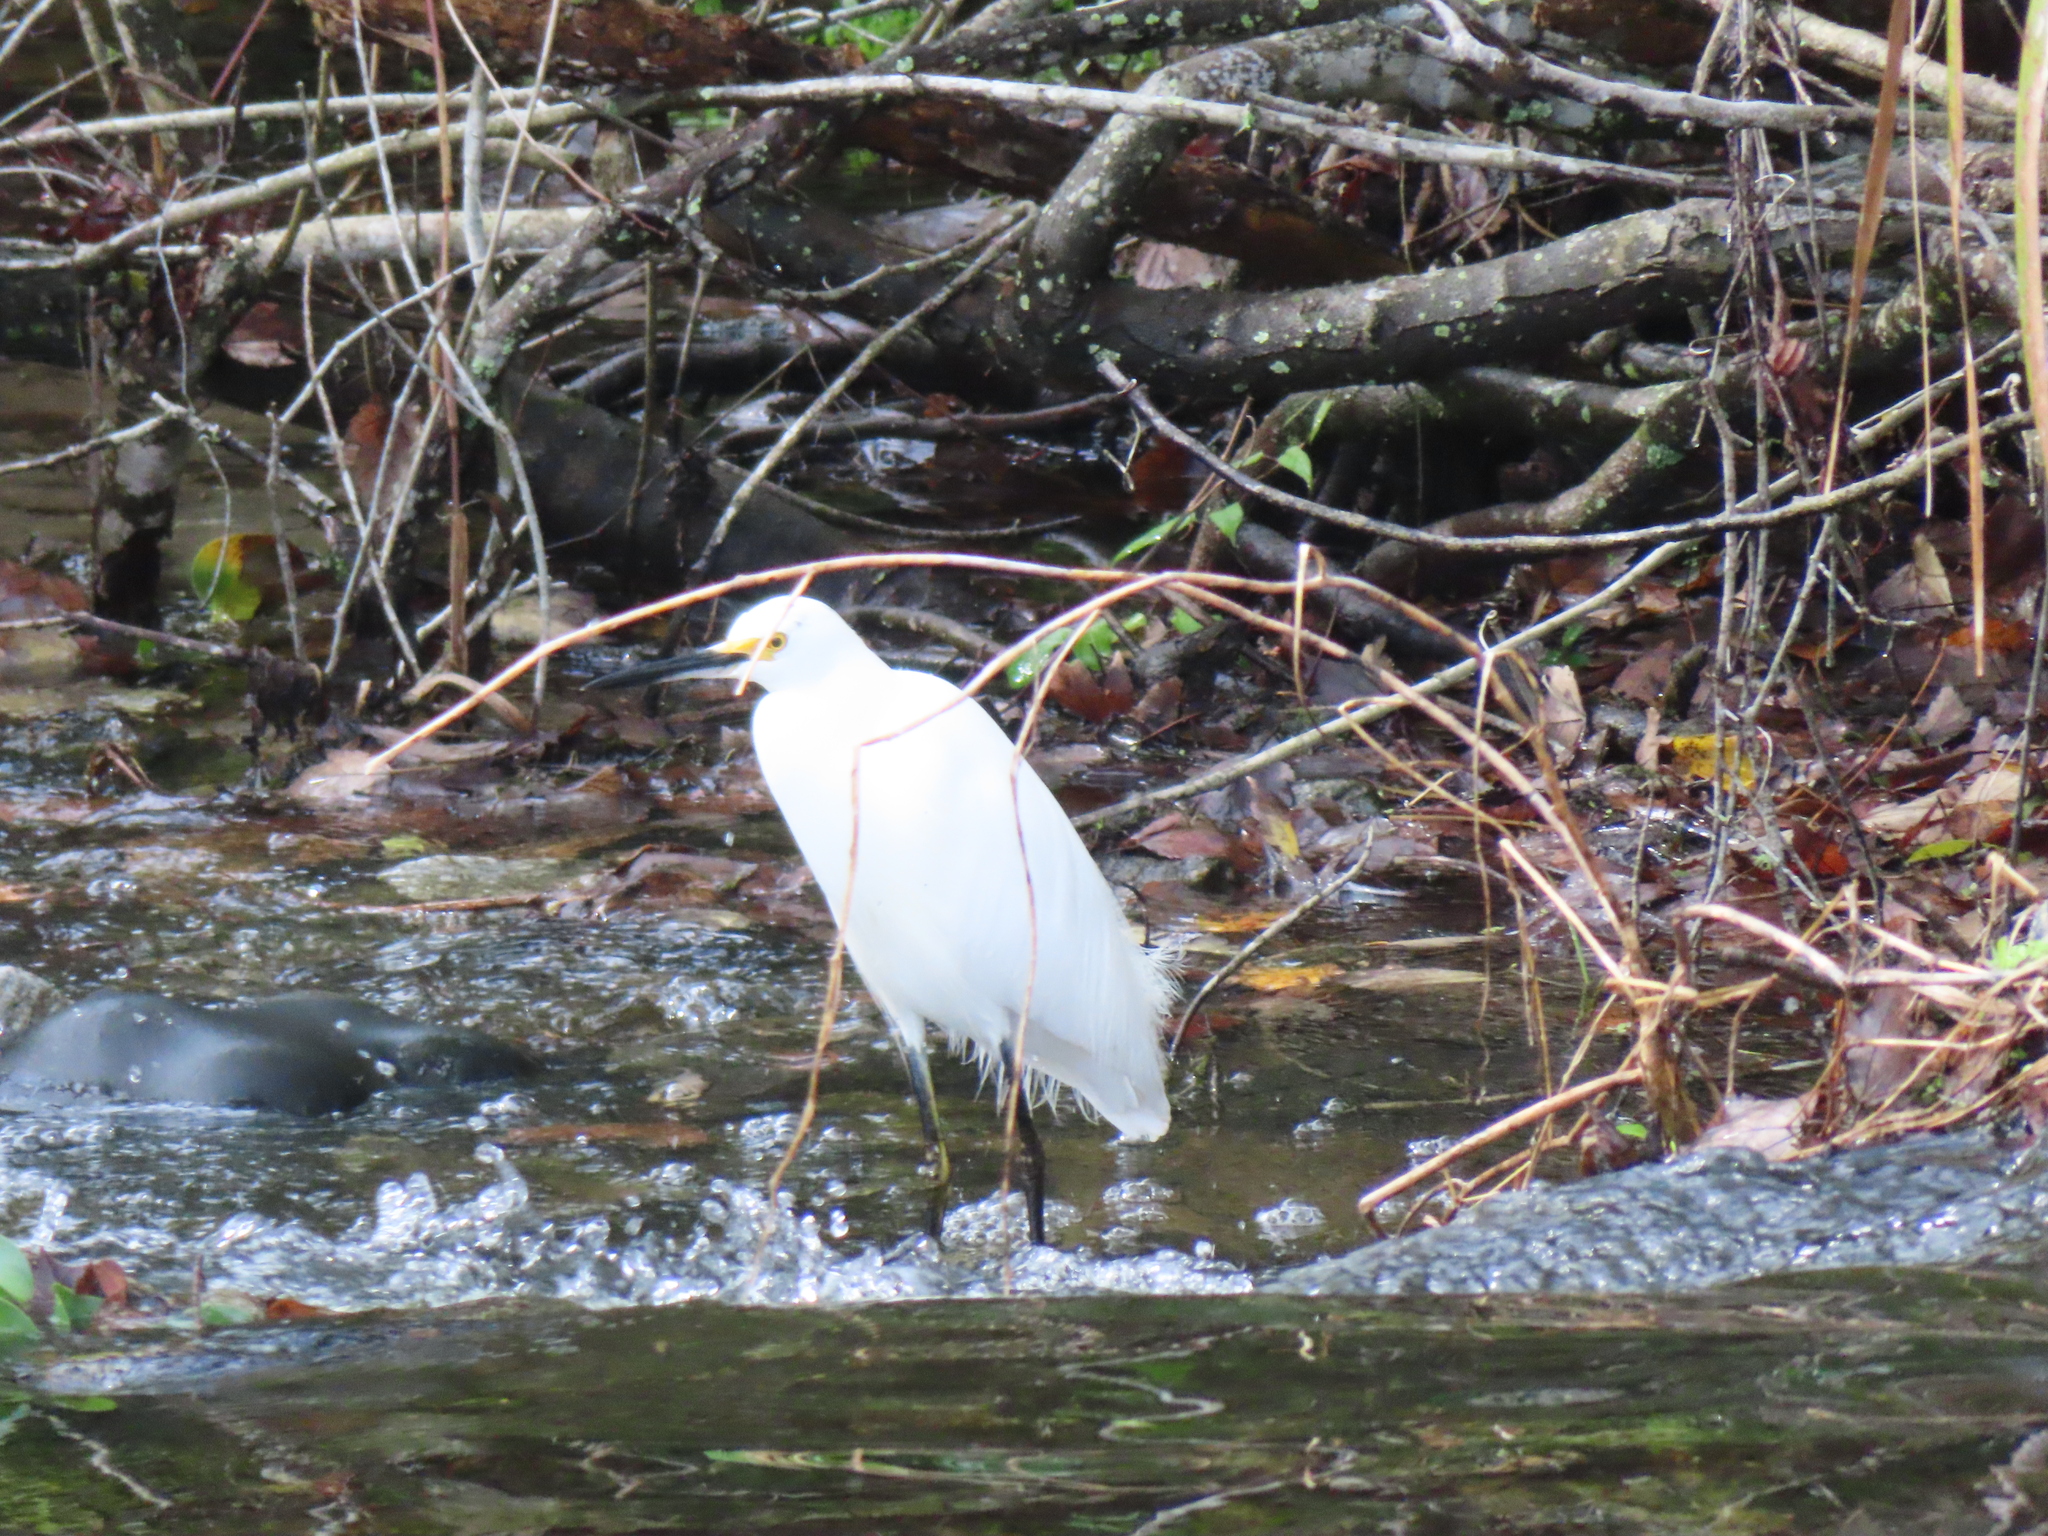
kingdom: Animalia
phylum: Chordata
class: Aves
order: Pelecaniformes
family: Ardeidae
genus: Egretta
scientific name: Egretta thula
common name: Snowy egret
